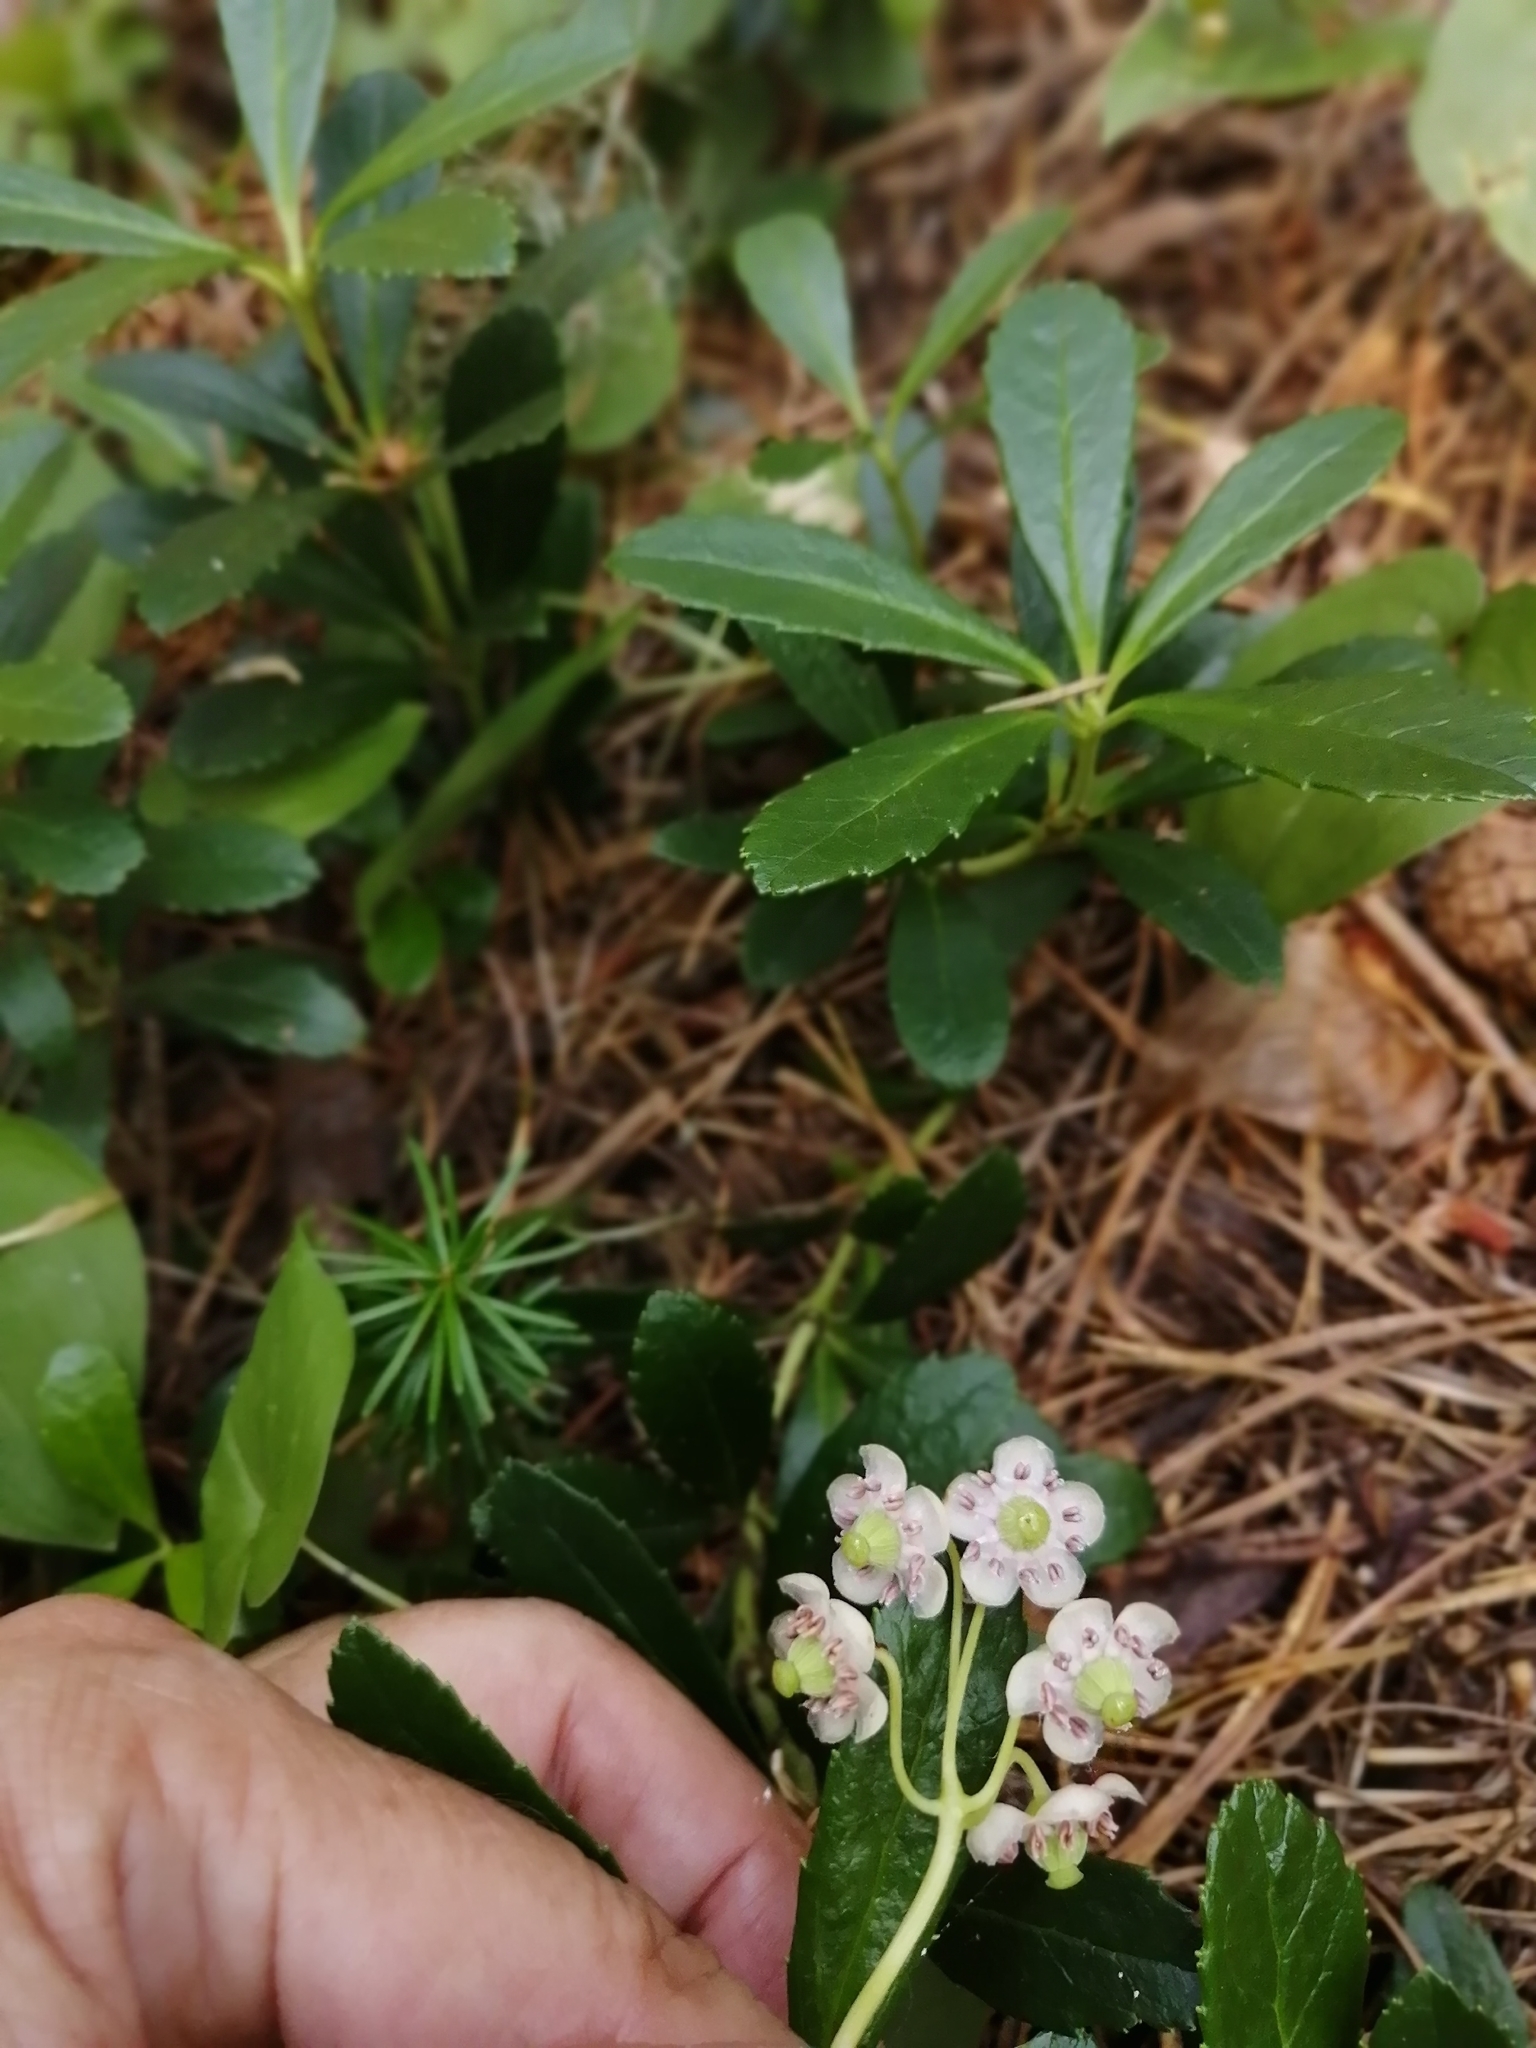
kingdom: Plantae
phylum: Tracheophyta
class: Magnoliopsida
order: Ericales
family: Ericaceae
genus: Chimaphila
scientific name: Chimaphila umbellata
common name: Pipsissewa
